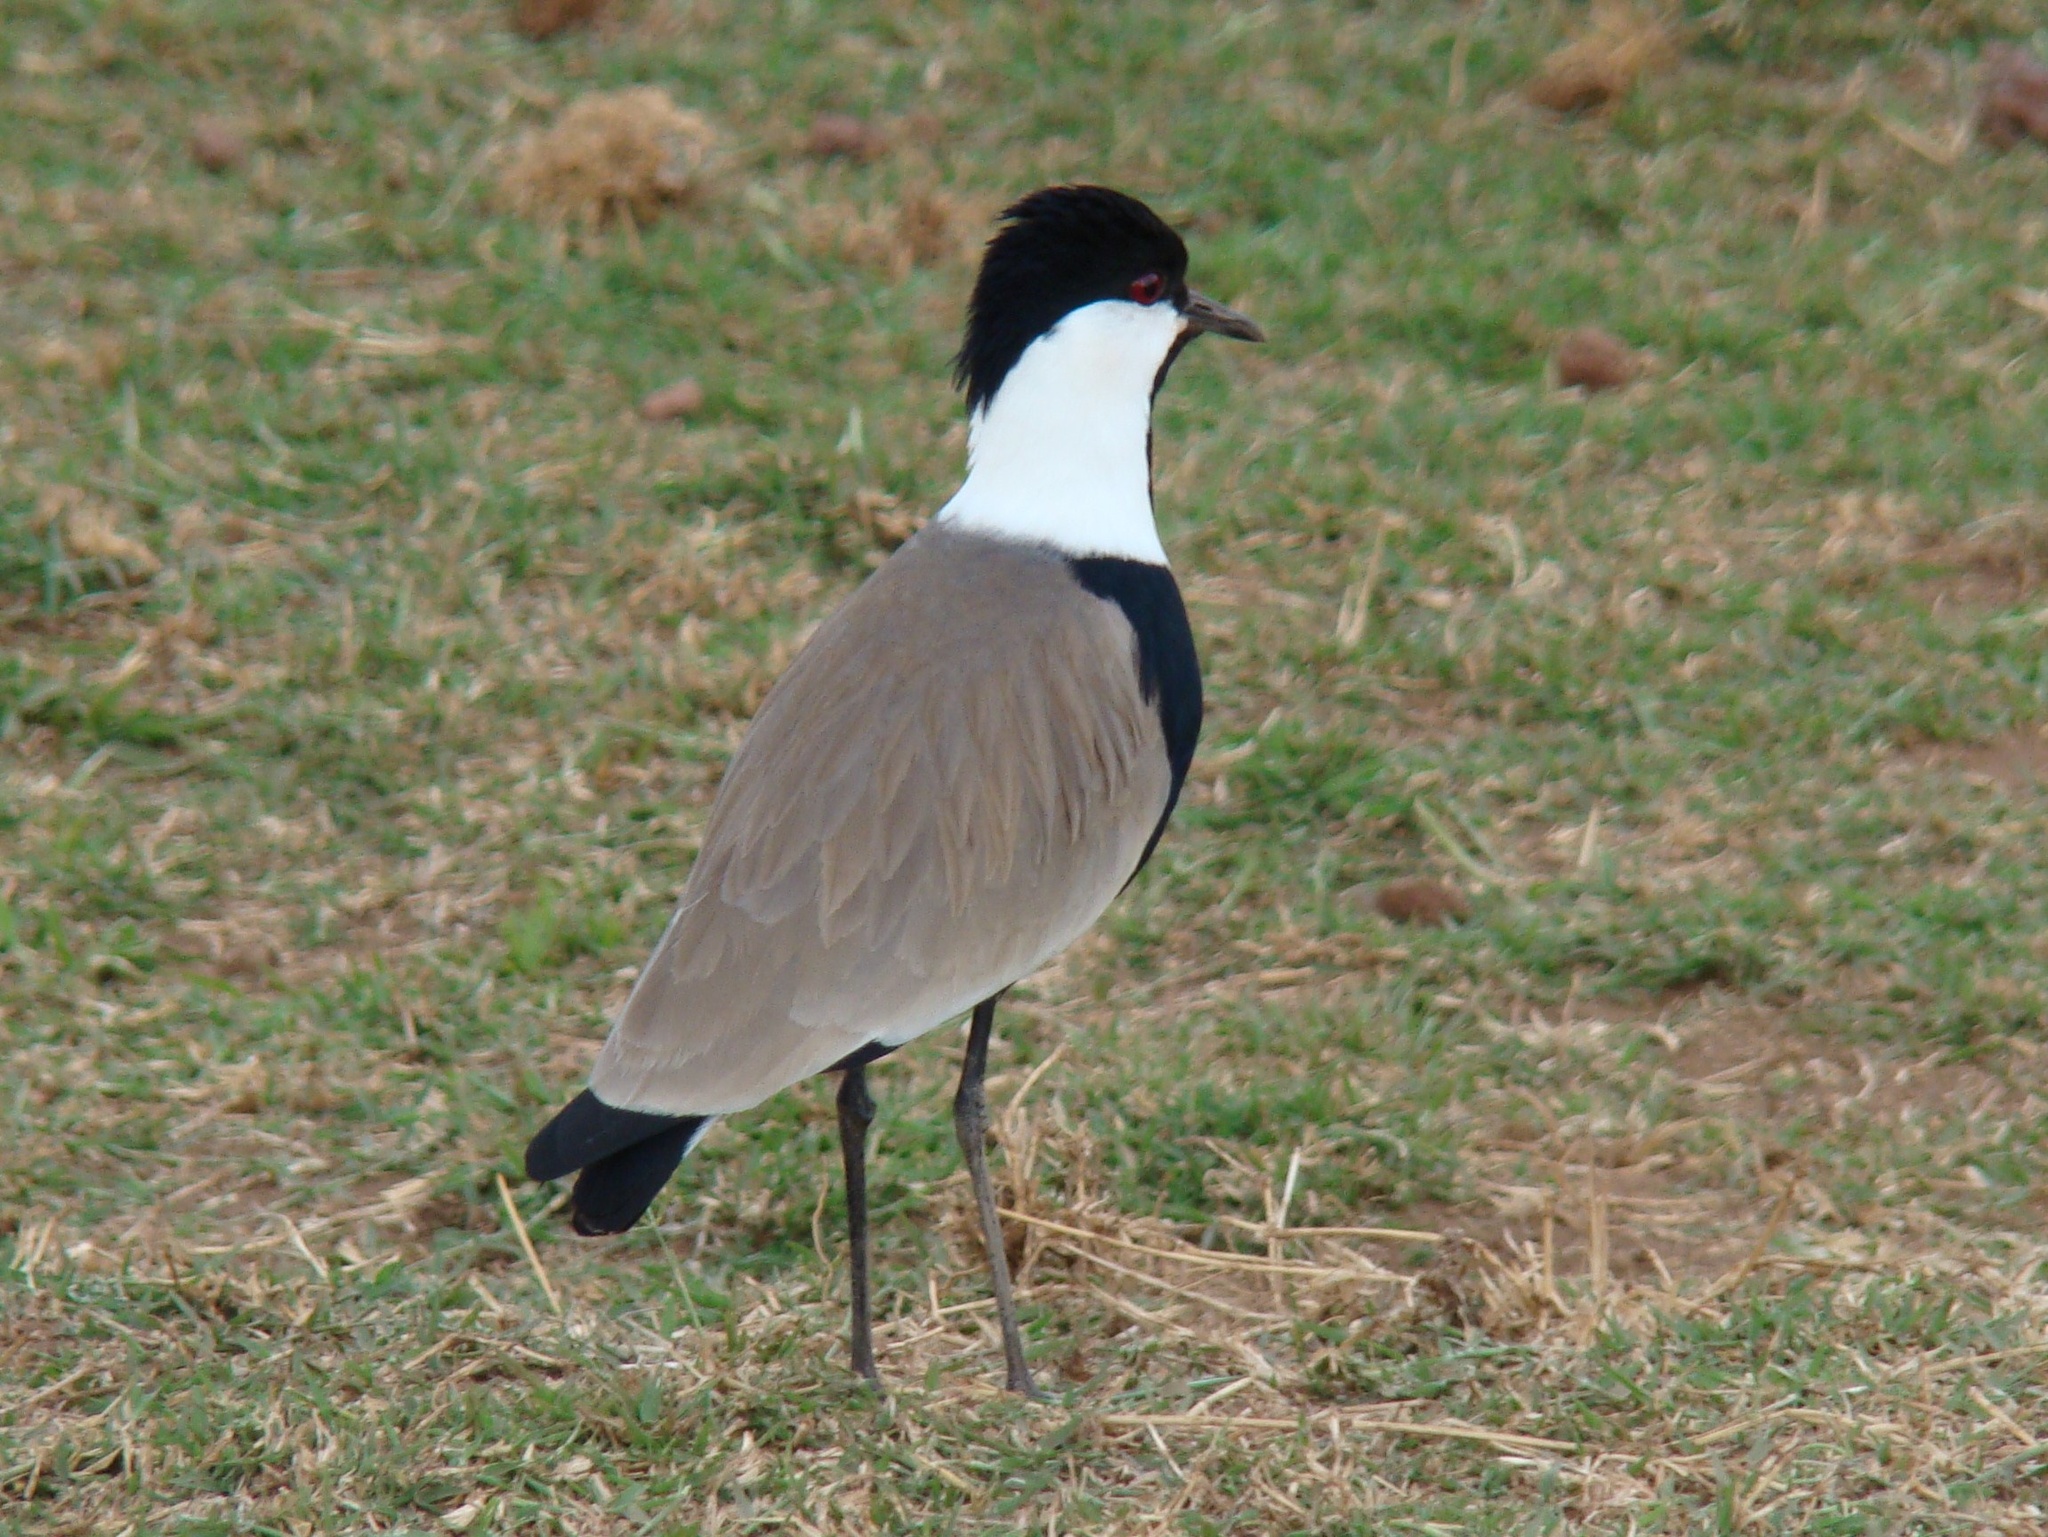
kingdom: Animalia
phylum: Chordata
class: Aves
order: Charadriiformes
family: Charadriidae
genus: Vanellus
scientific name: Vanellus spinosus
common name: Spur-winged lapwing
